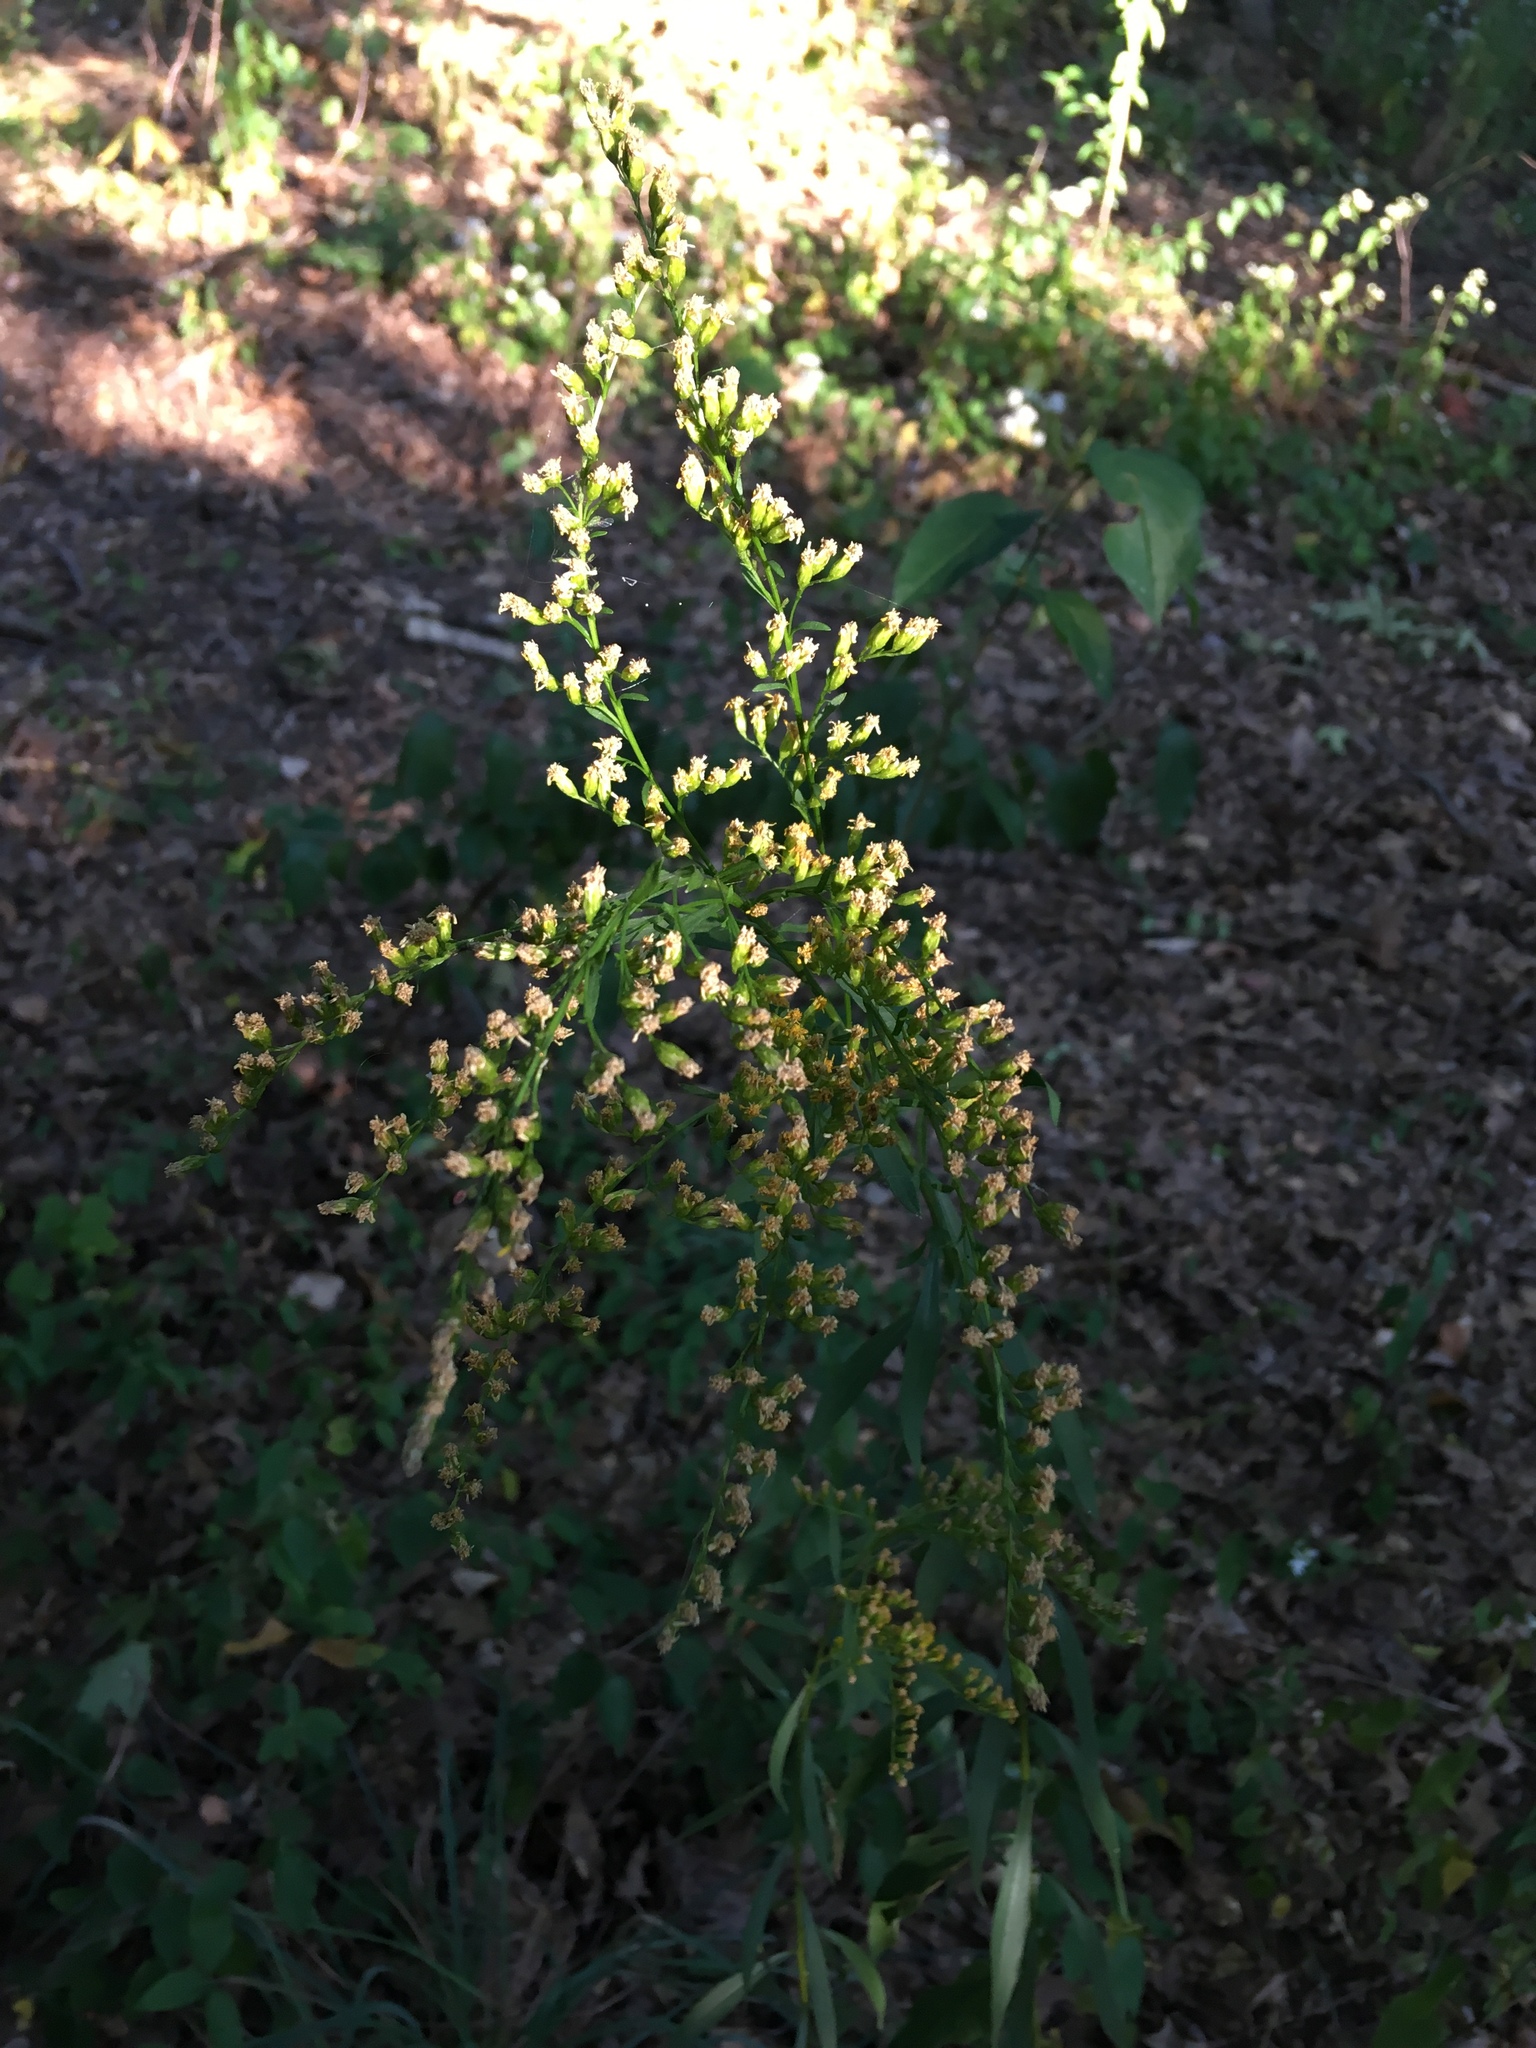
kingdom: Plantae
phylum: Tracheophyta
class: Magnoliopsida
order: Asterales
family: Asteraceae
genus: Solidago
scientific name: Solidago juncea
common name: Early goldenrod
